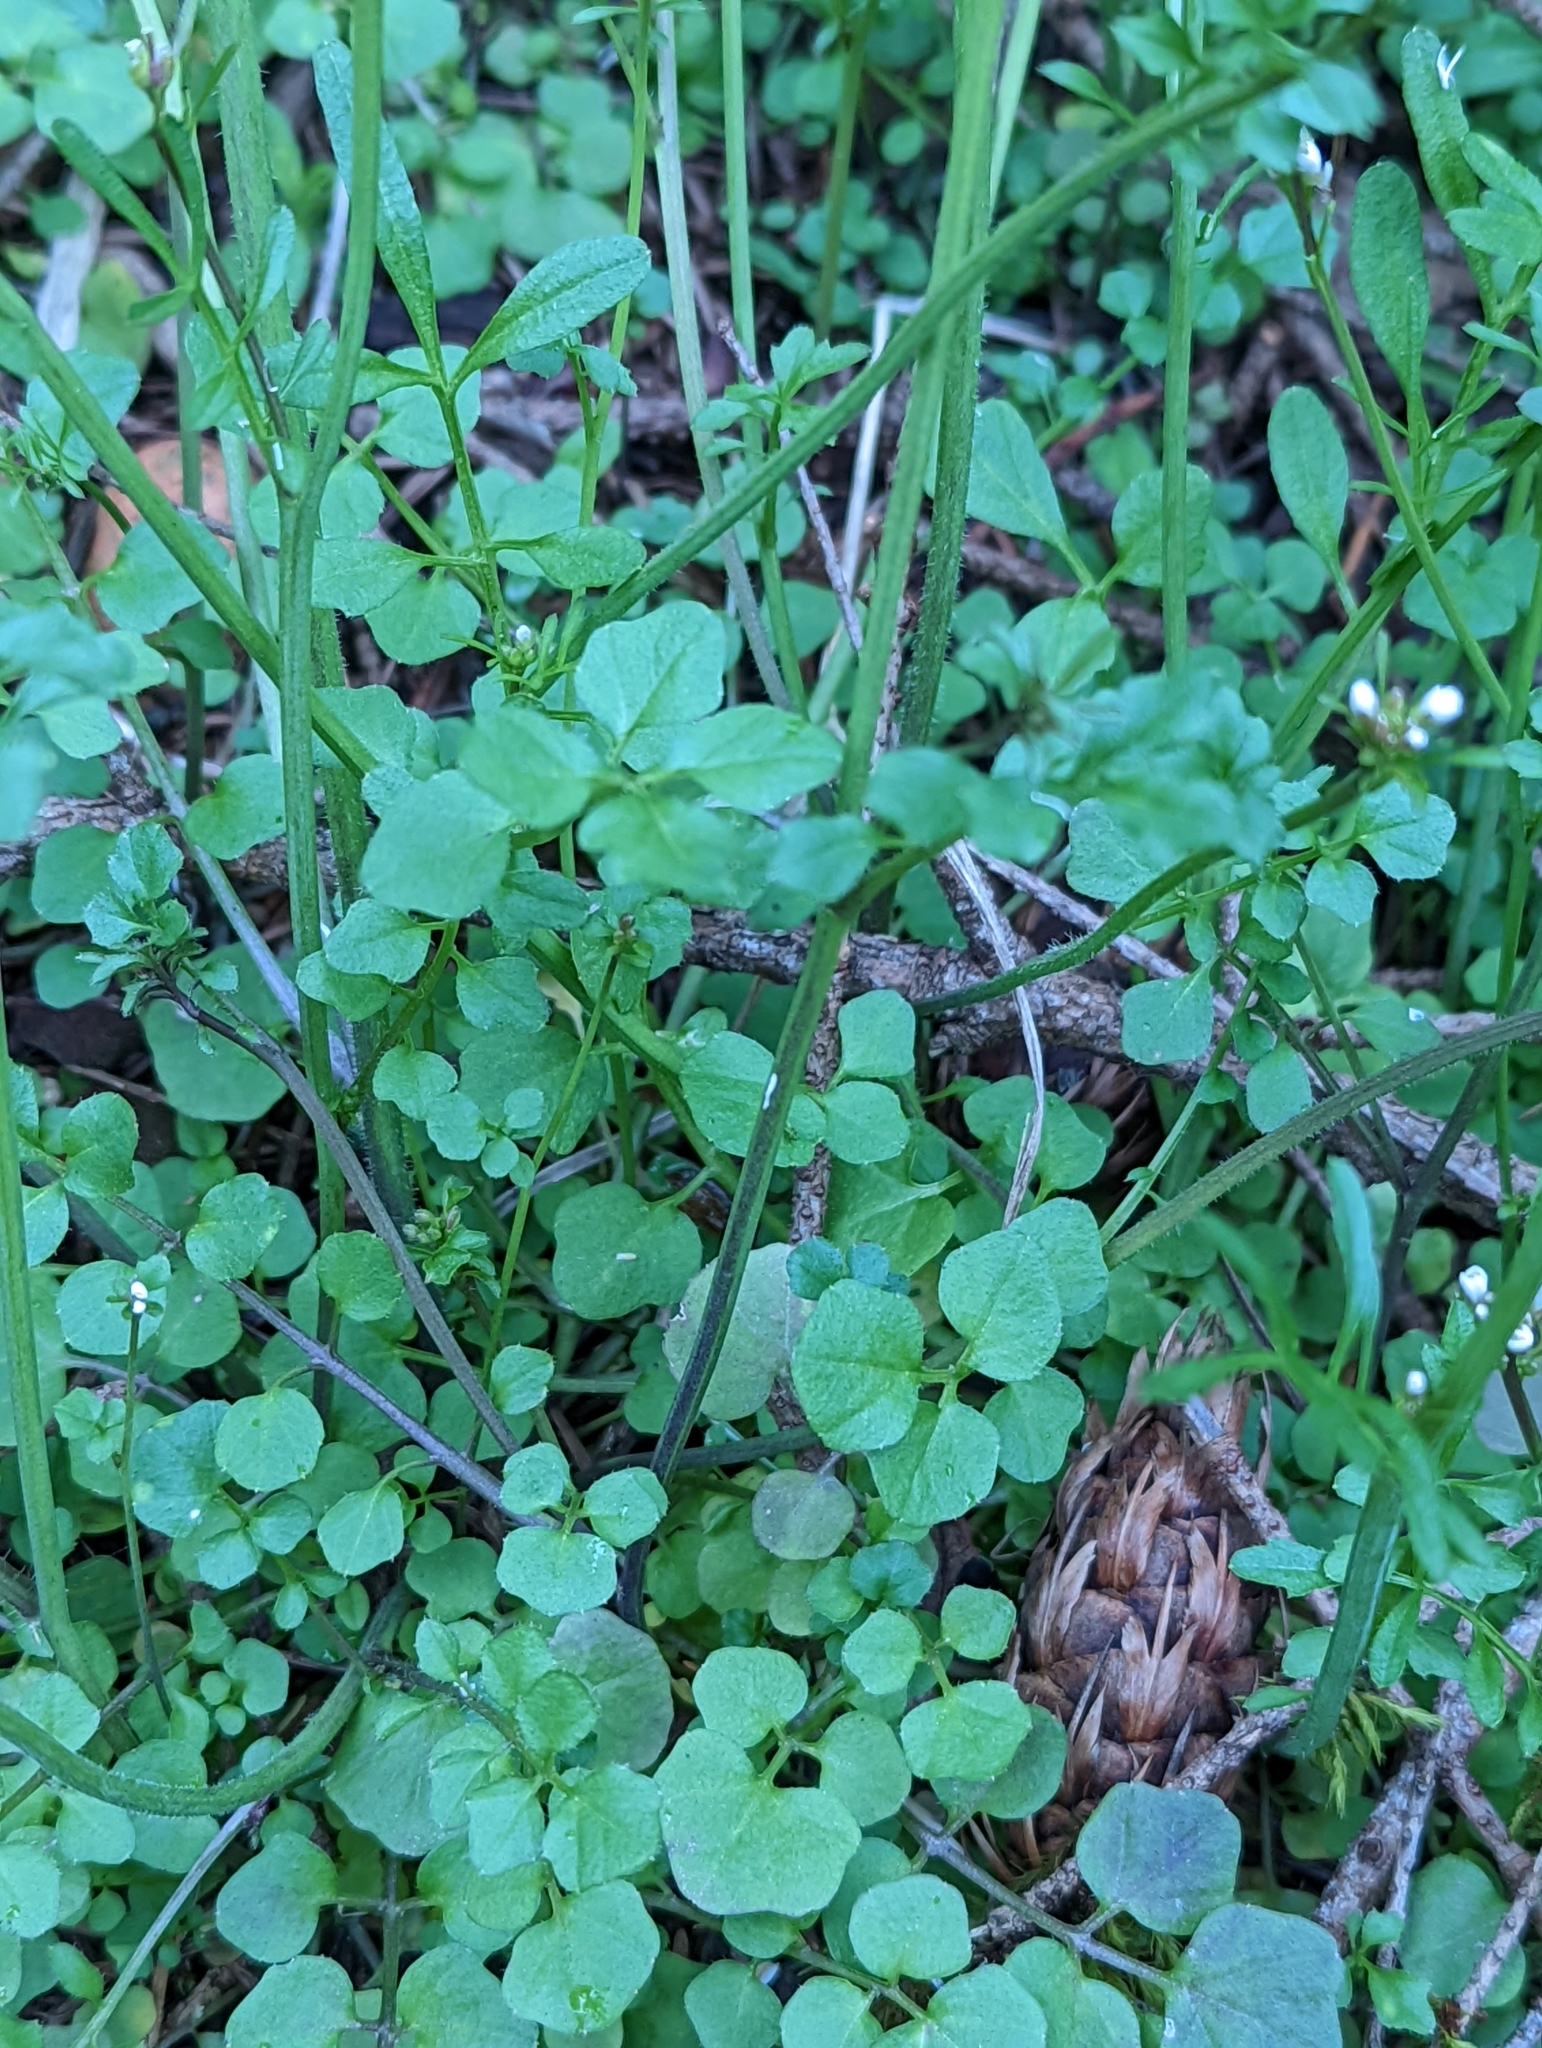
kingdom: Plantae
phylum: Tracheophyta
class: Magnoliopsida
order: Brassicales
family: Brassicaceae
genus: Cardamine
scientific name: Cardamine hirsuta
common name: Hairy bittercress
